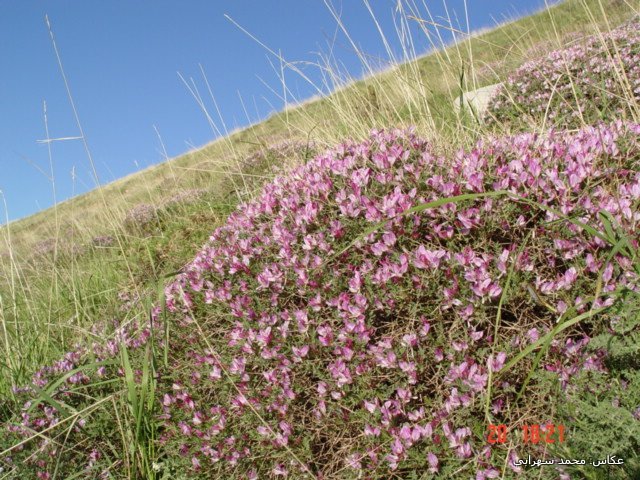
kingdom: Plantae
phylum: Tracheophyta
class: Magnoliopsida
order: Fabales
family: Fabaceae
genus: Onobrychis
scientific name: Onobrychis cornuta
